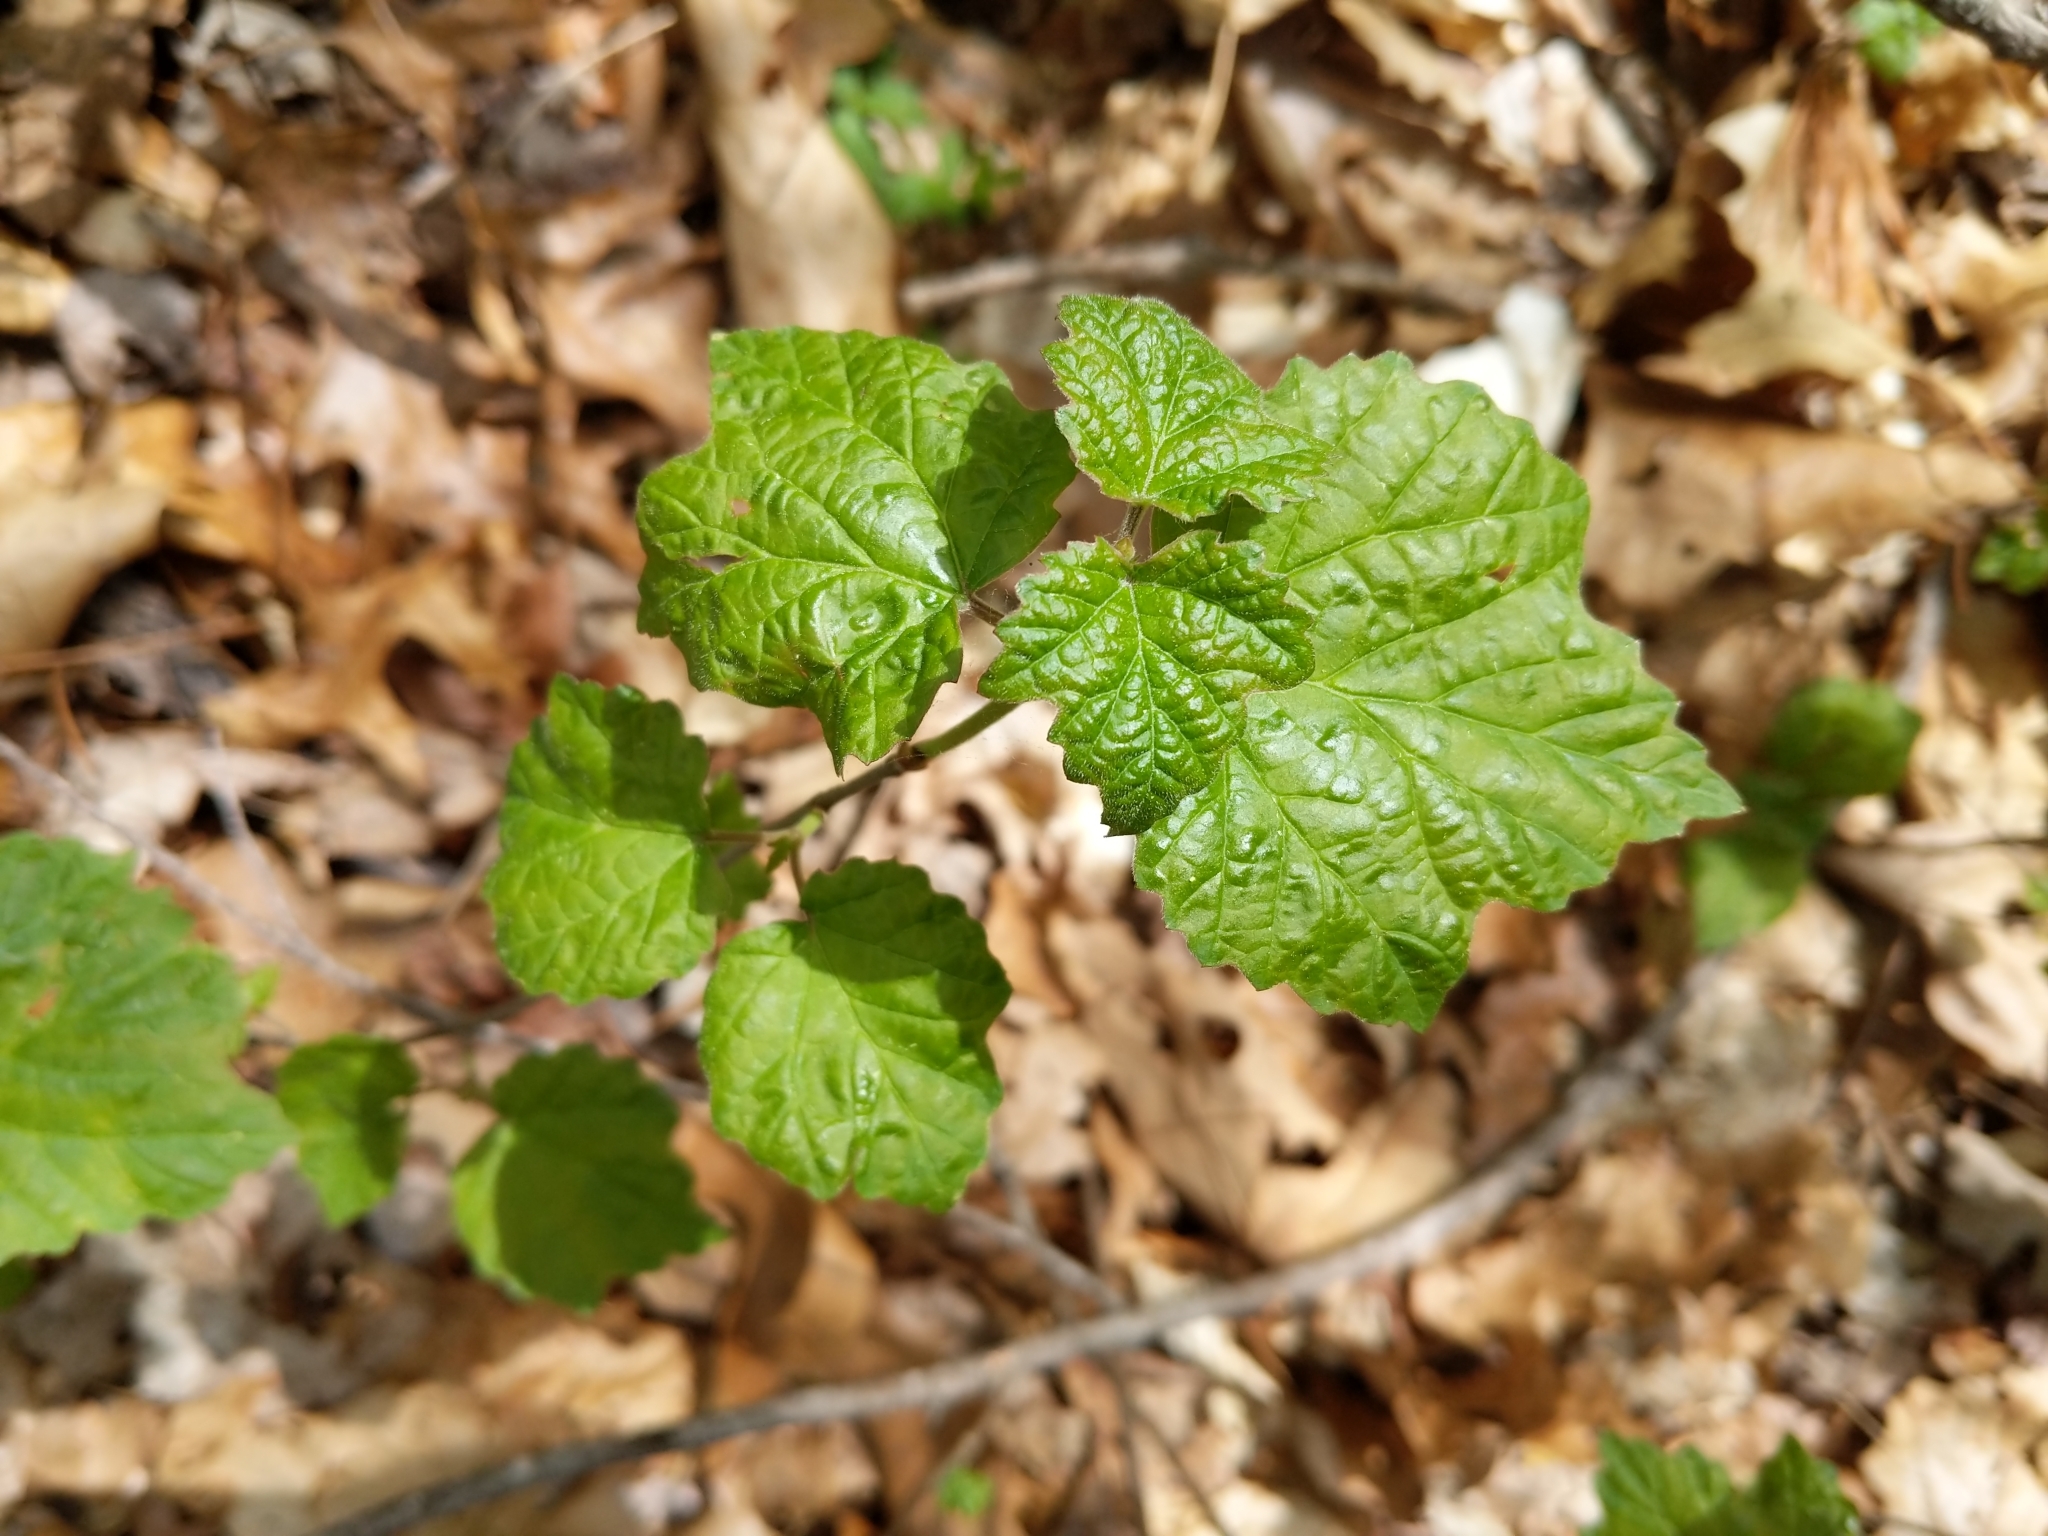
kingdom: Plantae
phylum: Tracheophyta
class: Magnoliopsida
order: Dipsacales
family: Viburnaceae
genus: Viburnum
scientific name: Viburnum acerifolium
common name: Dockmackie
